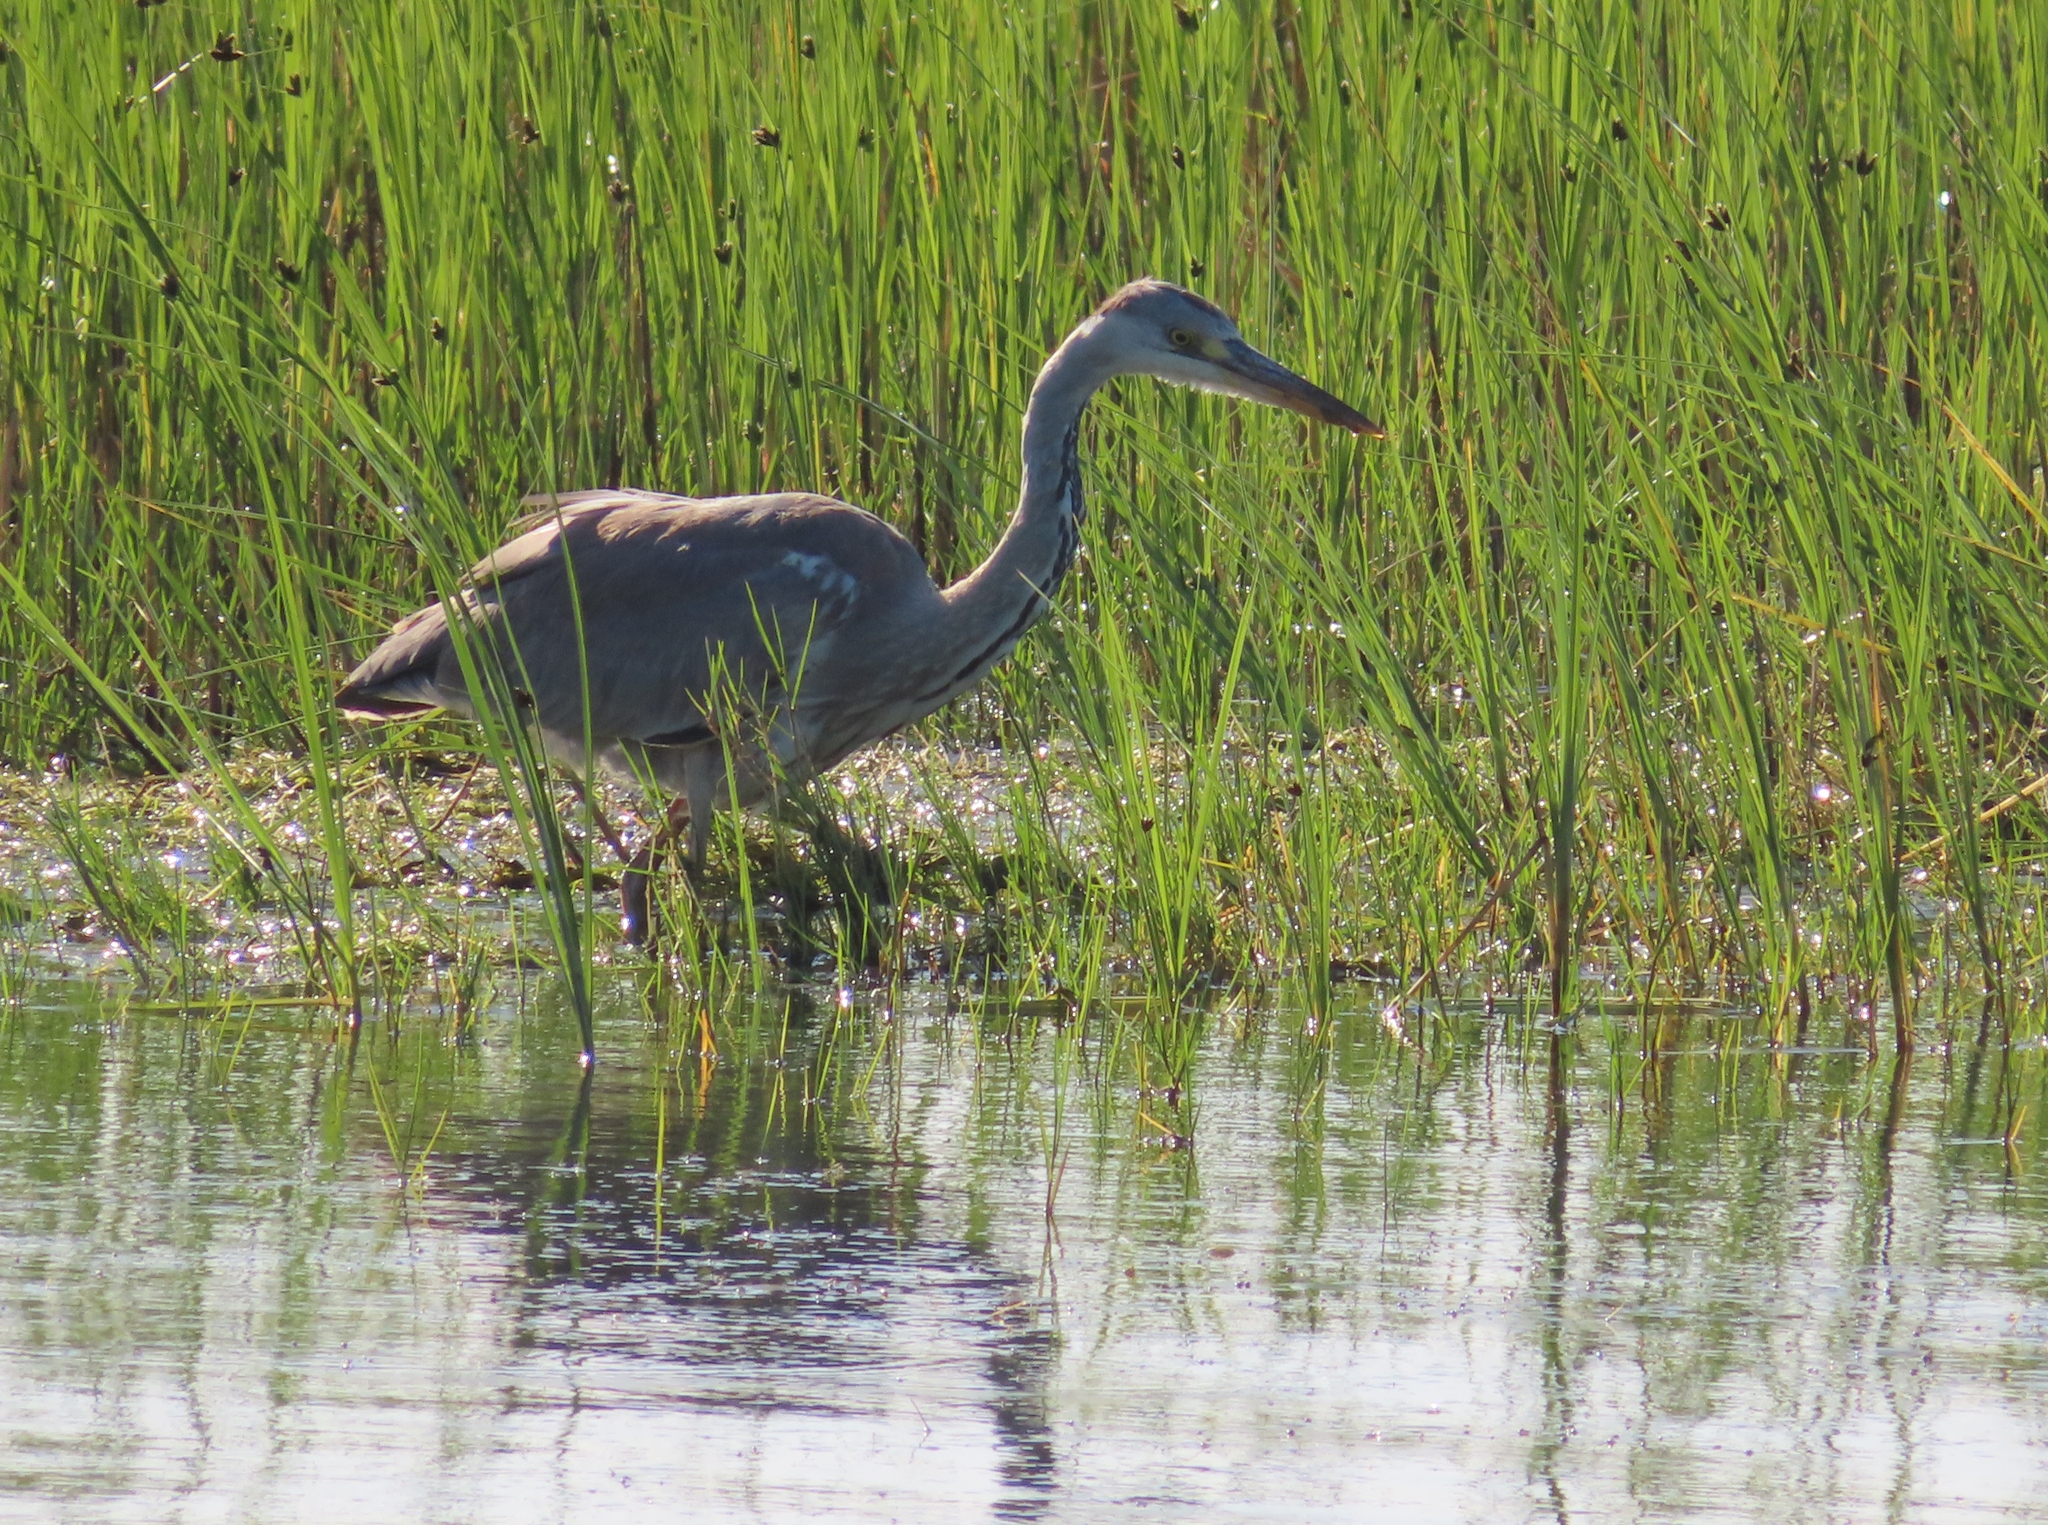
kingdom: Animalia
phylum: Chordata
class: Aves
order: Pelecaniformes
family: Ardeidae
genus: Ardea
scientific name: Ardea cinerea
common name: Grey heron
